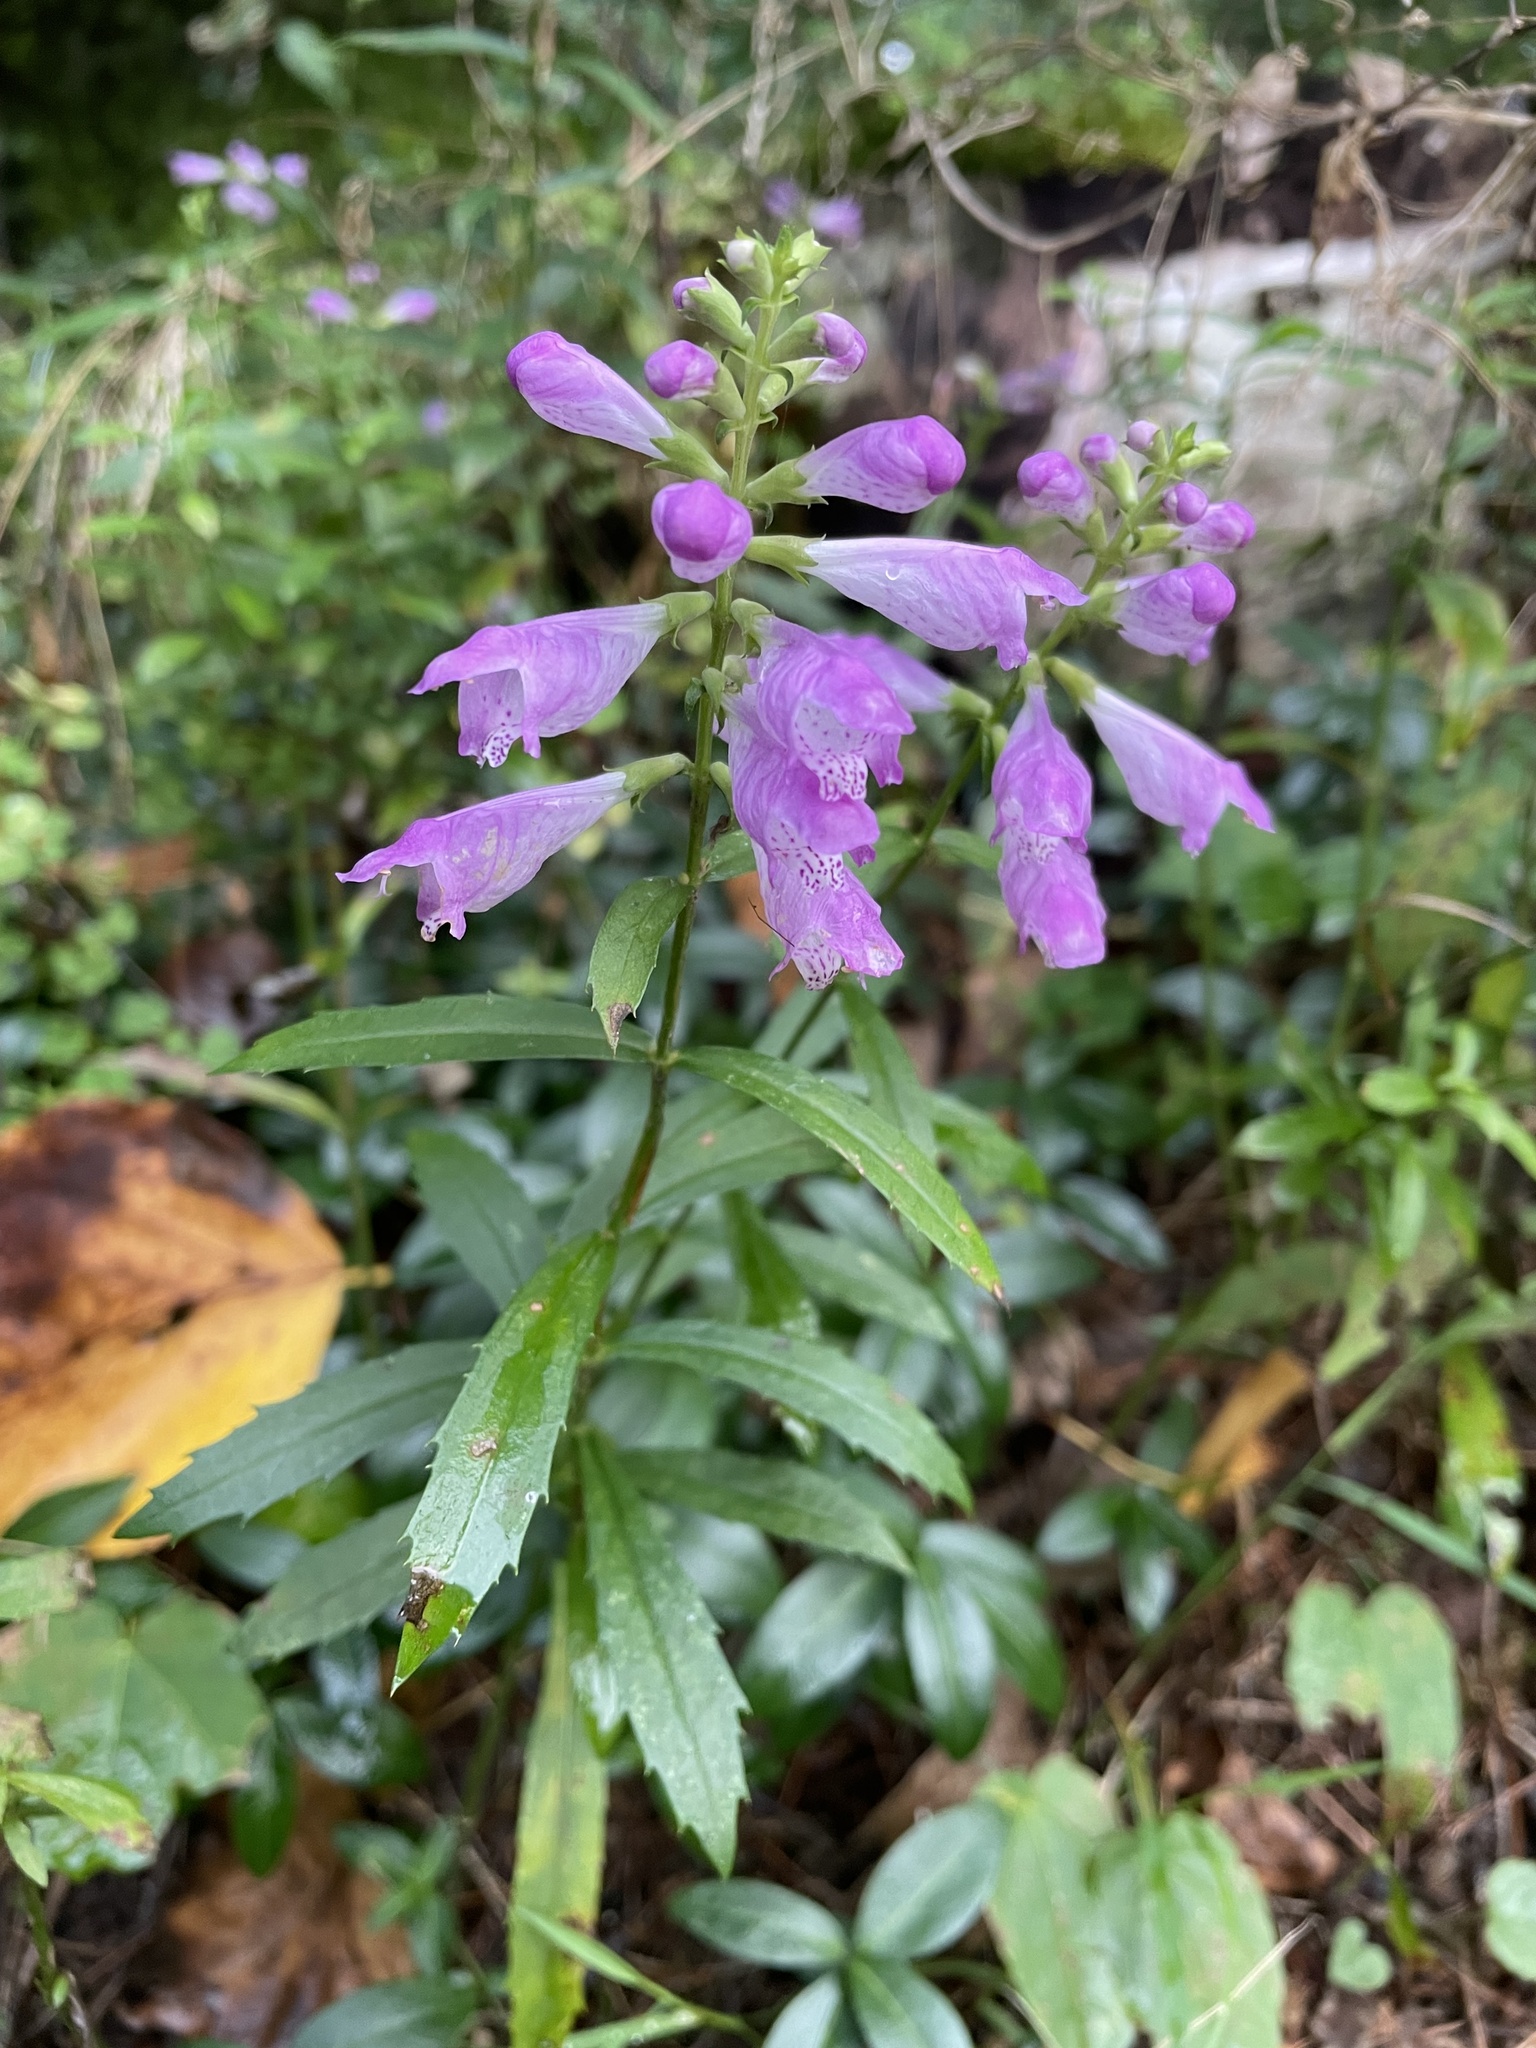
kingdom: Plantae
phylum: Tracheophyta
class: Magnoliopsida
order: Lamiales
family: Lamiaceae
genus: Physostegia
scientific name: Physostegia virginiana
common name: Obedient-plant
